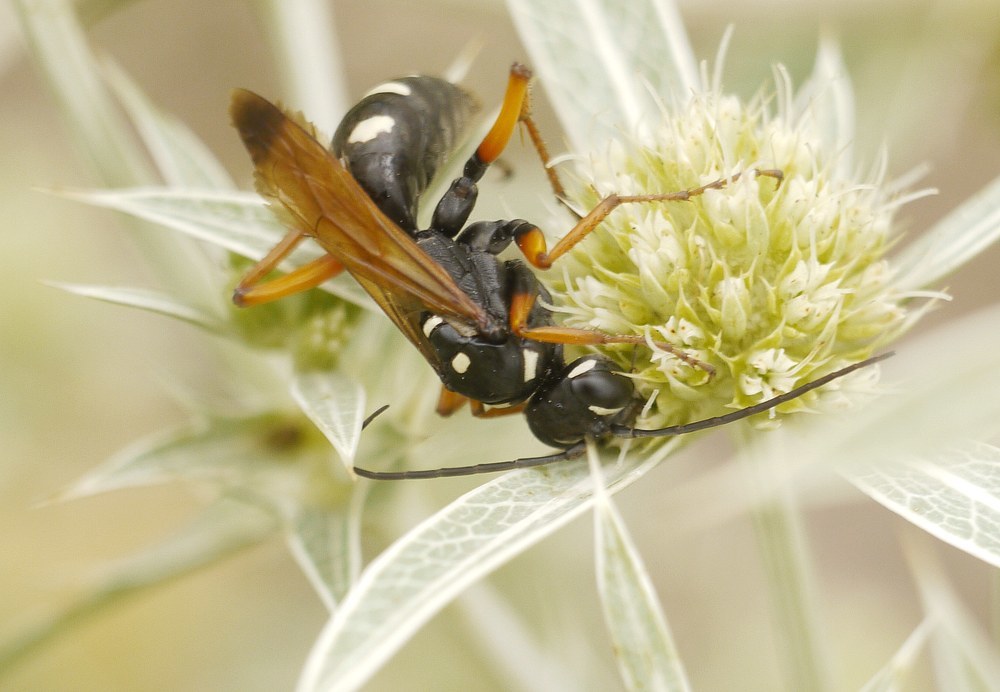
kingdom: Animalia
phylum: Arthropoda
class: Insecta
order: Hymenoptera
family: Pompilidae
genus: Cryptocheilus
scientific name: Cryptocheilus variabilis
